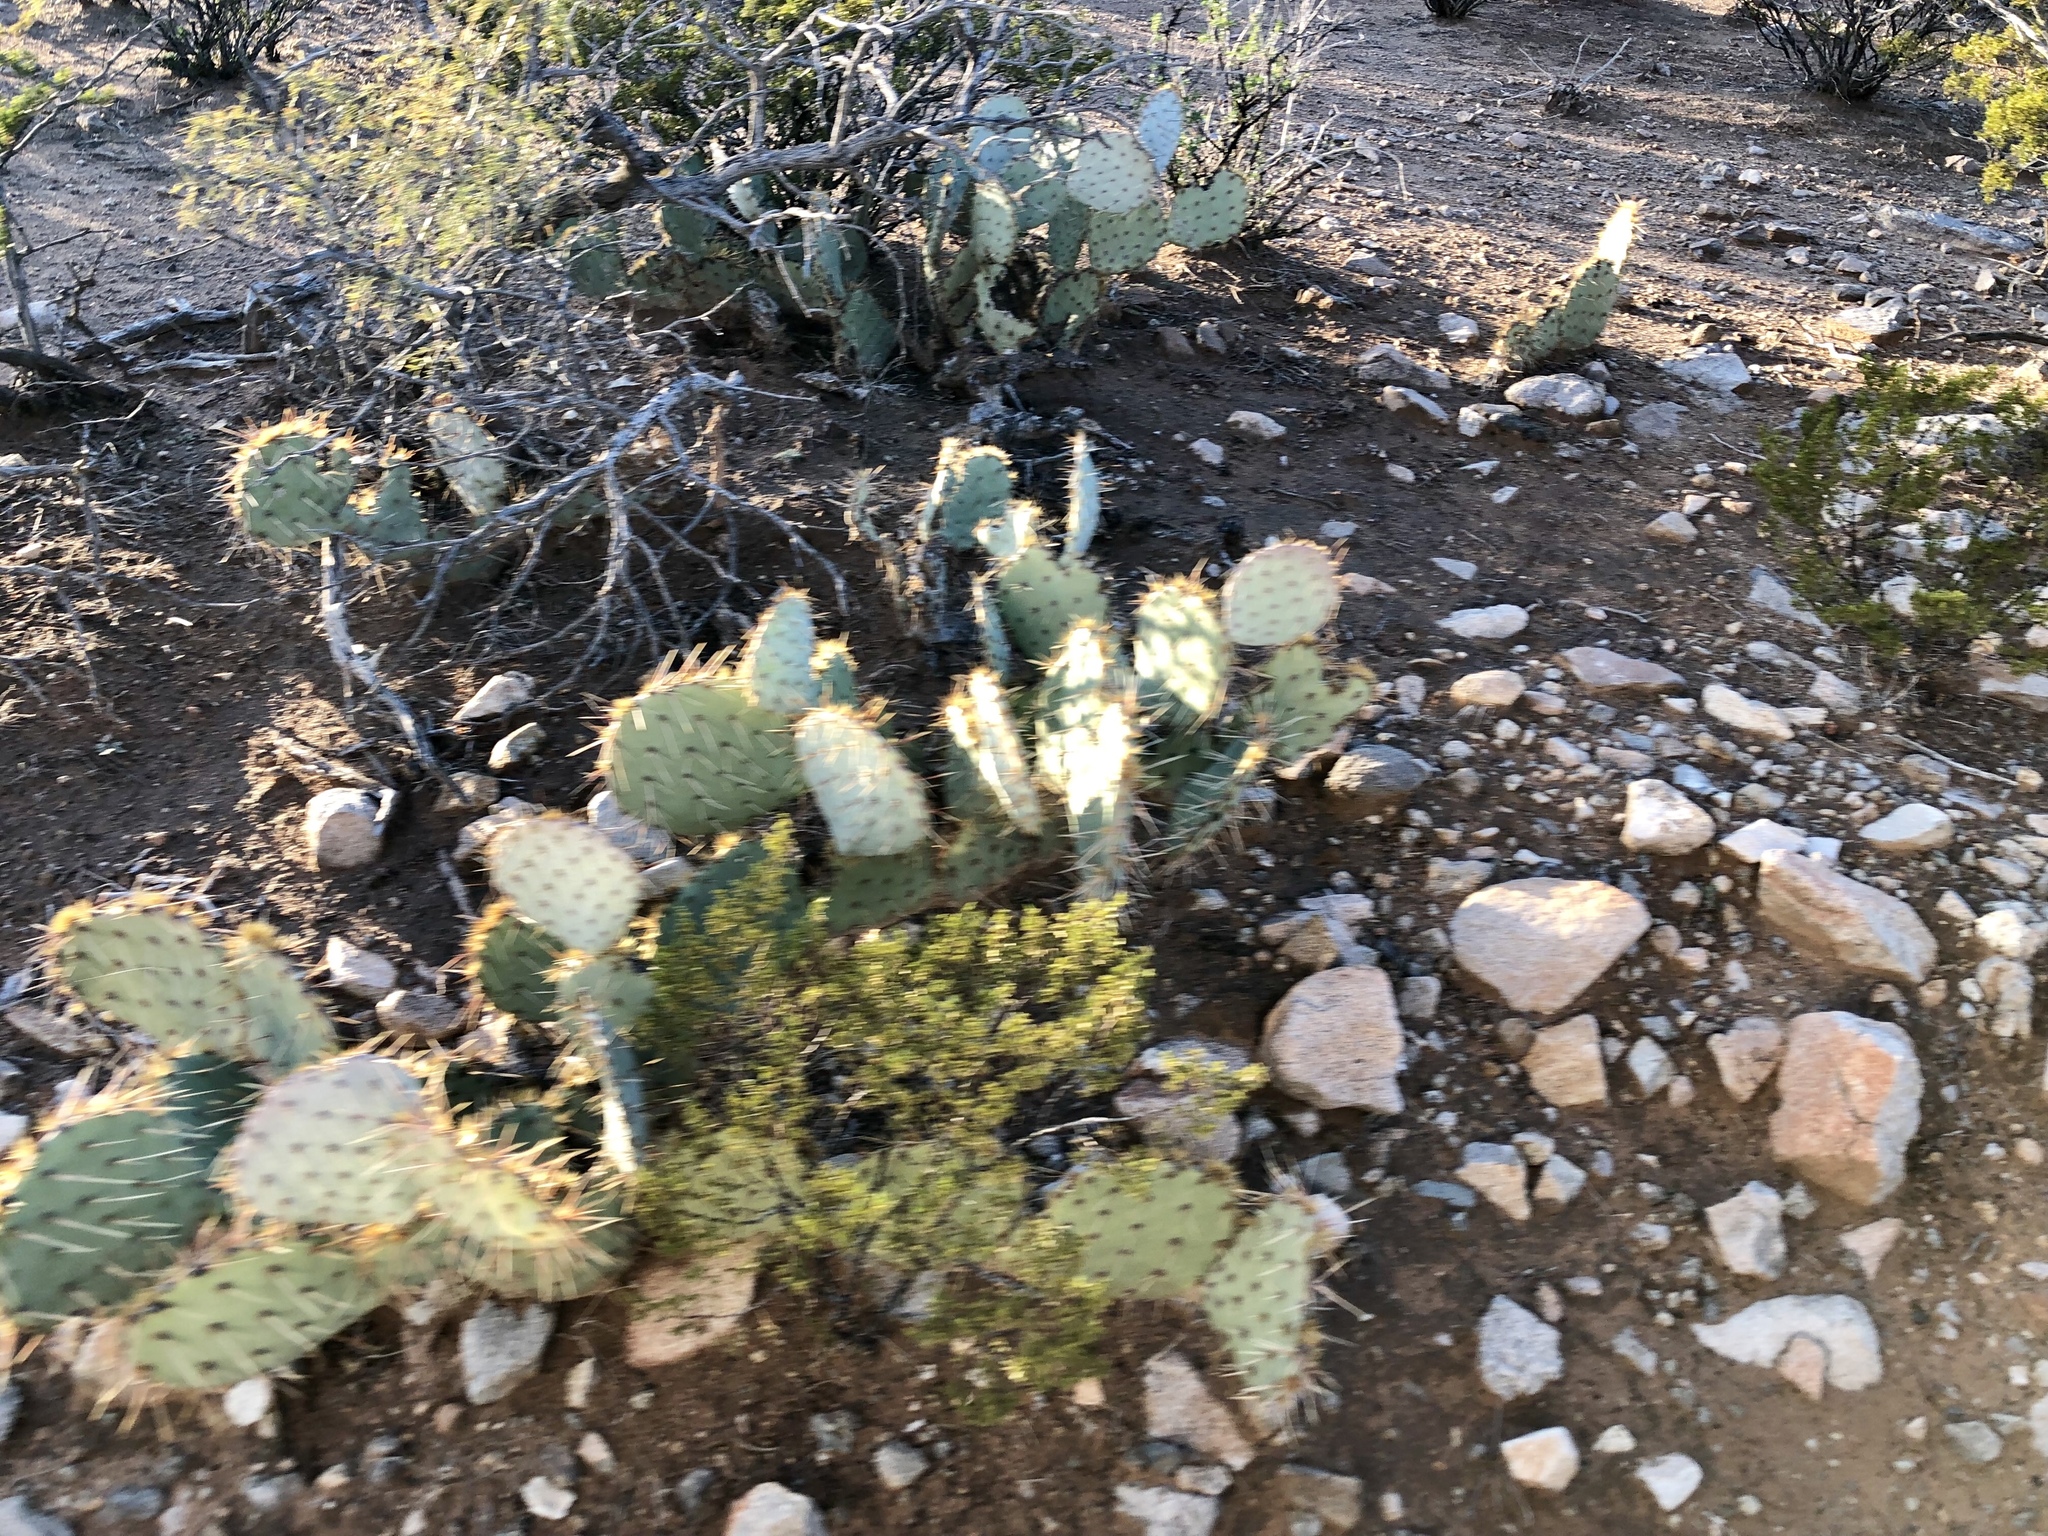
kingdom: Plantae
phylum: Tracheophyta
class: Magnoliopsida
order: Caryophyllales
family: Cactaceae
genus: Opuntia
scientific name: Opuntia engelmannii
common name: Cactus-apple
